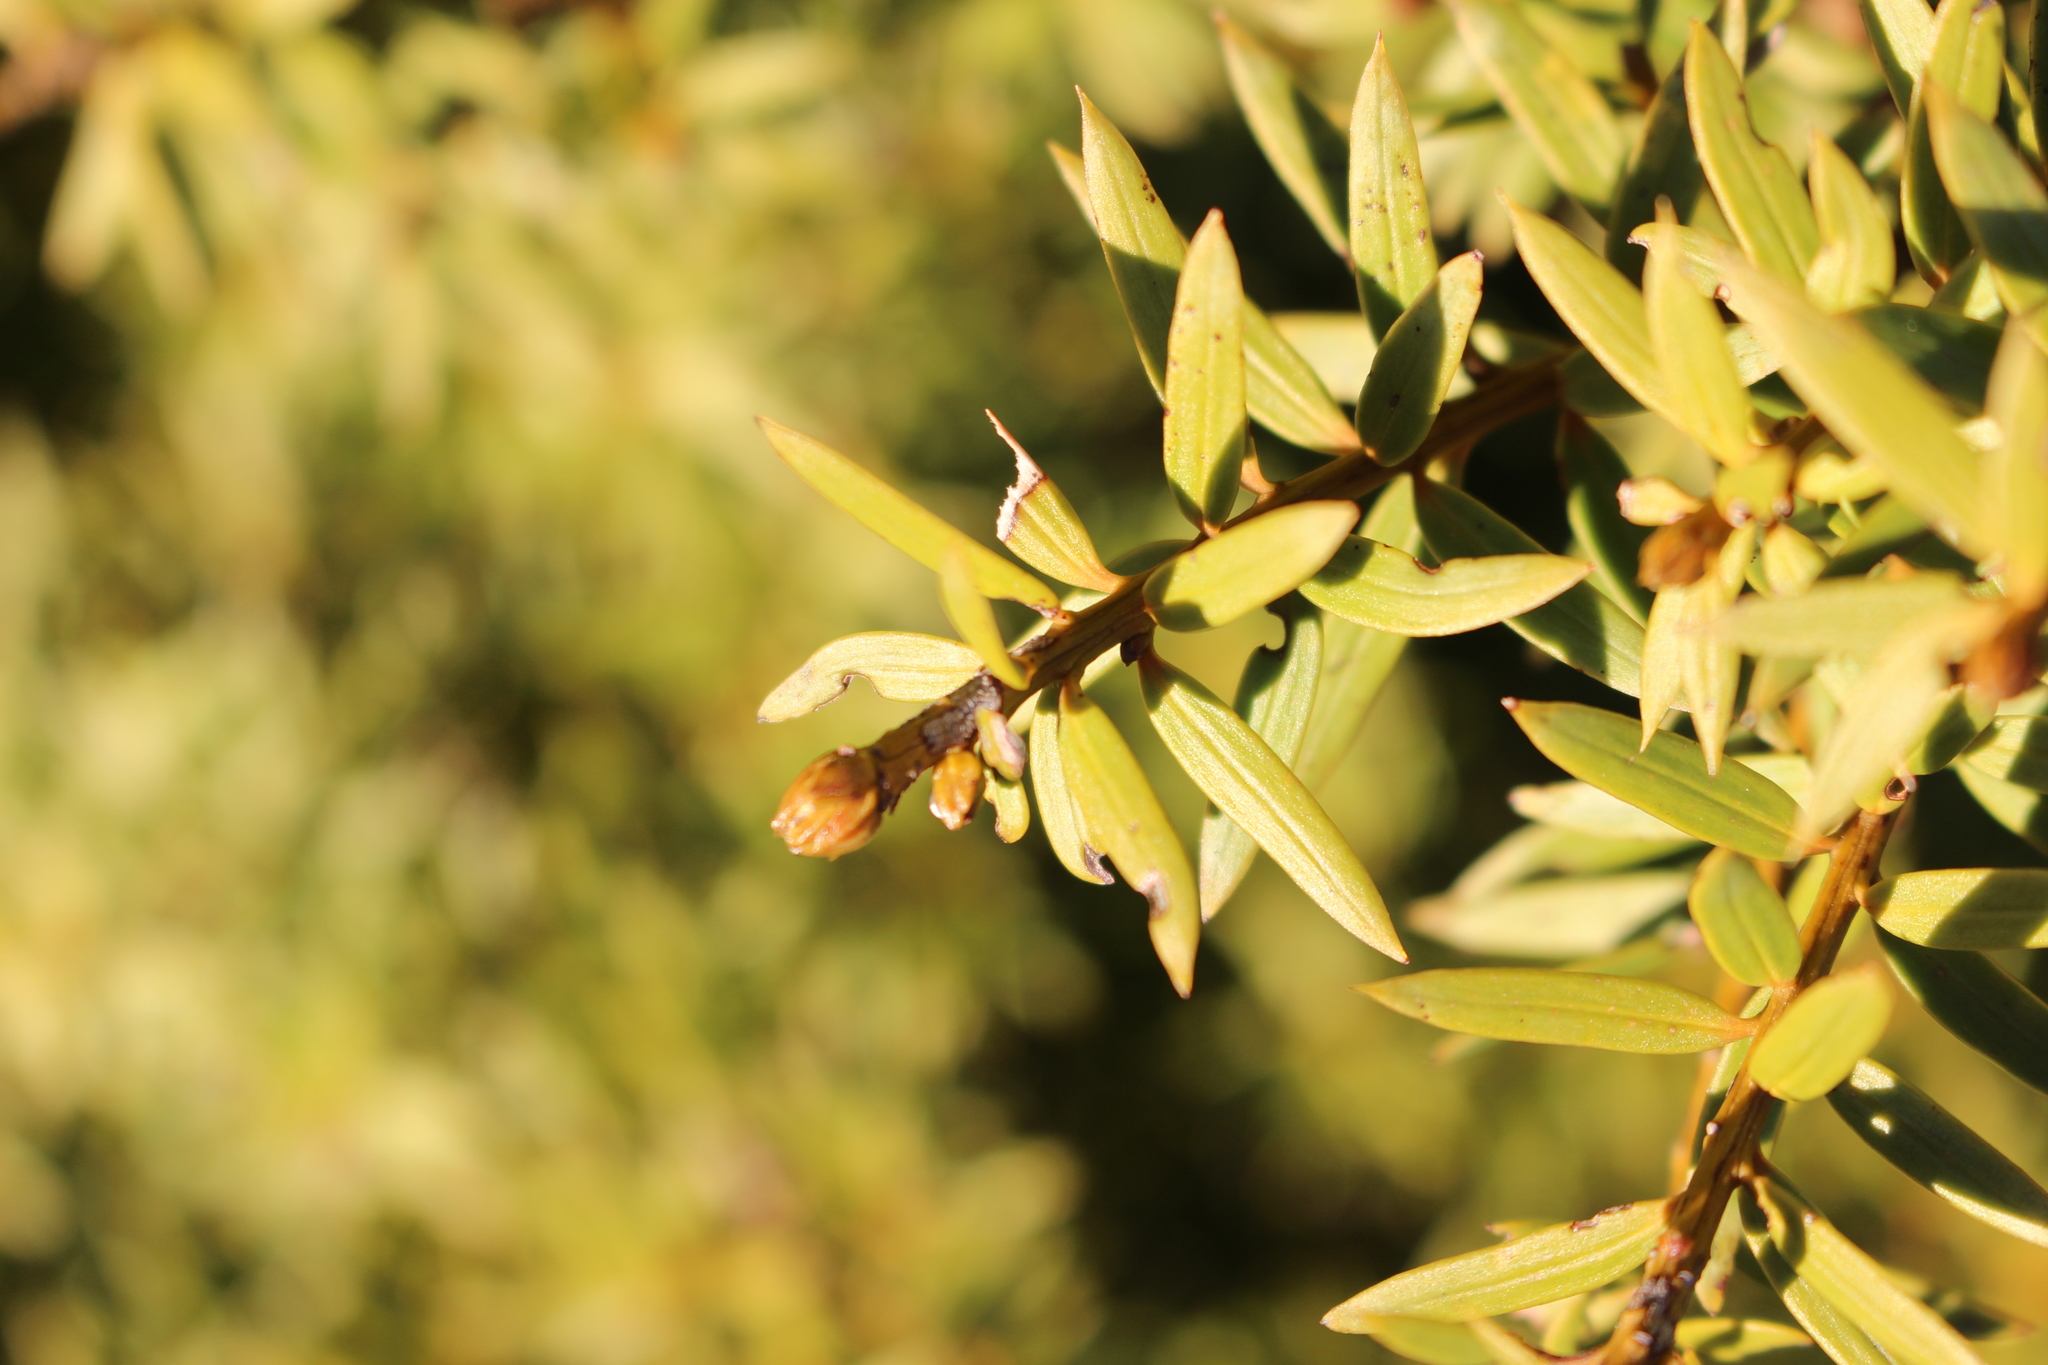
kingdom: Plantae
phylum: Tracheophyta
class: Pinopsida
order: Pinales
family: Podocarpaceae
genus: Podocarpus
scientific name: Podocarpus laetus
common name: Hall's totara
